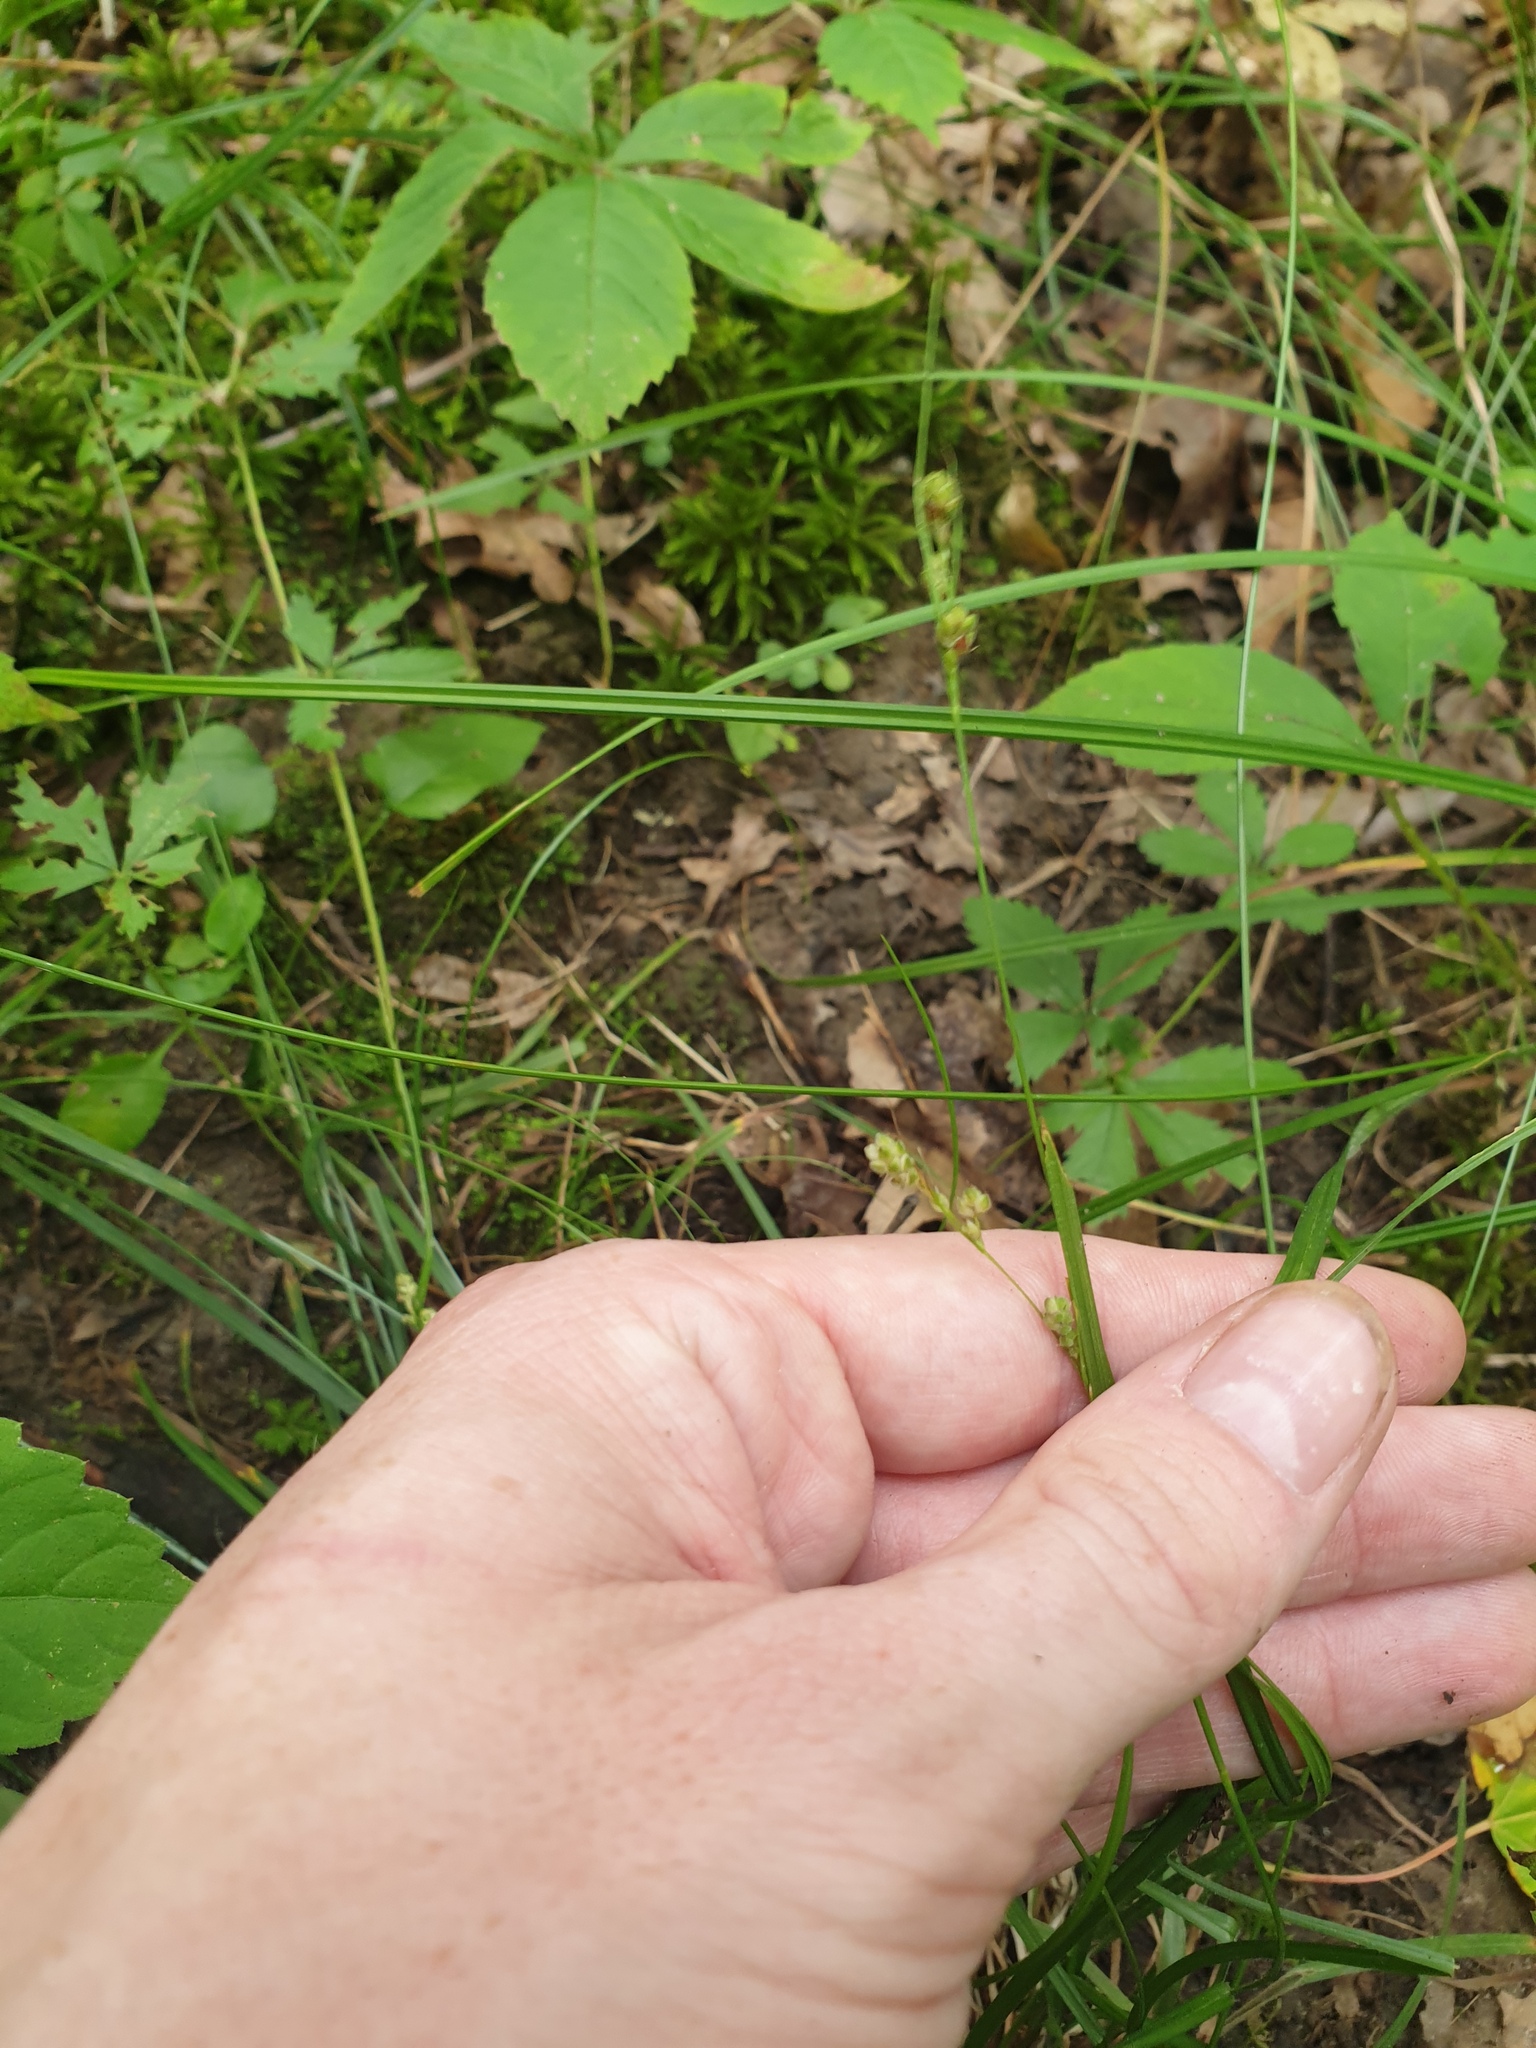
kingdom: Plantae
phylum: Tracheophyta
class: Liliopsida
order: Poales
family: Cyperaceae
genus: Carex
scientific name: Carex swanii
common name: Downy green sedge
